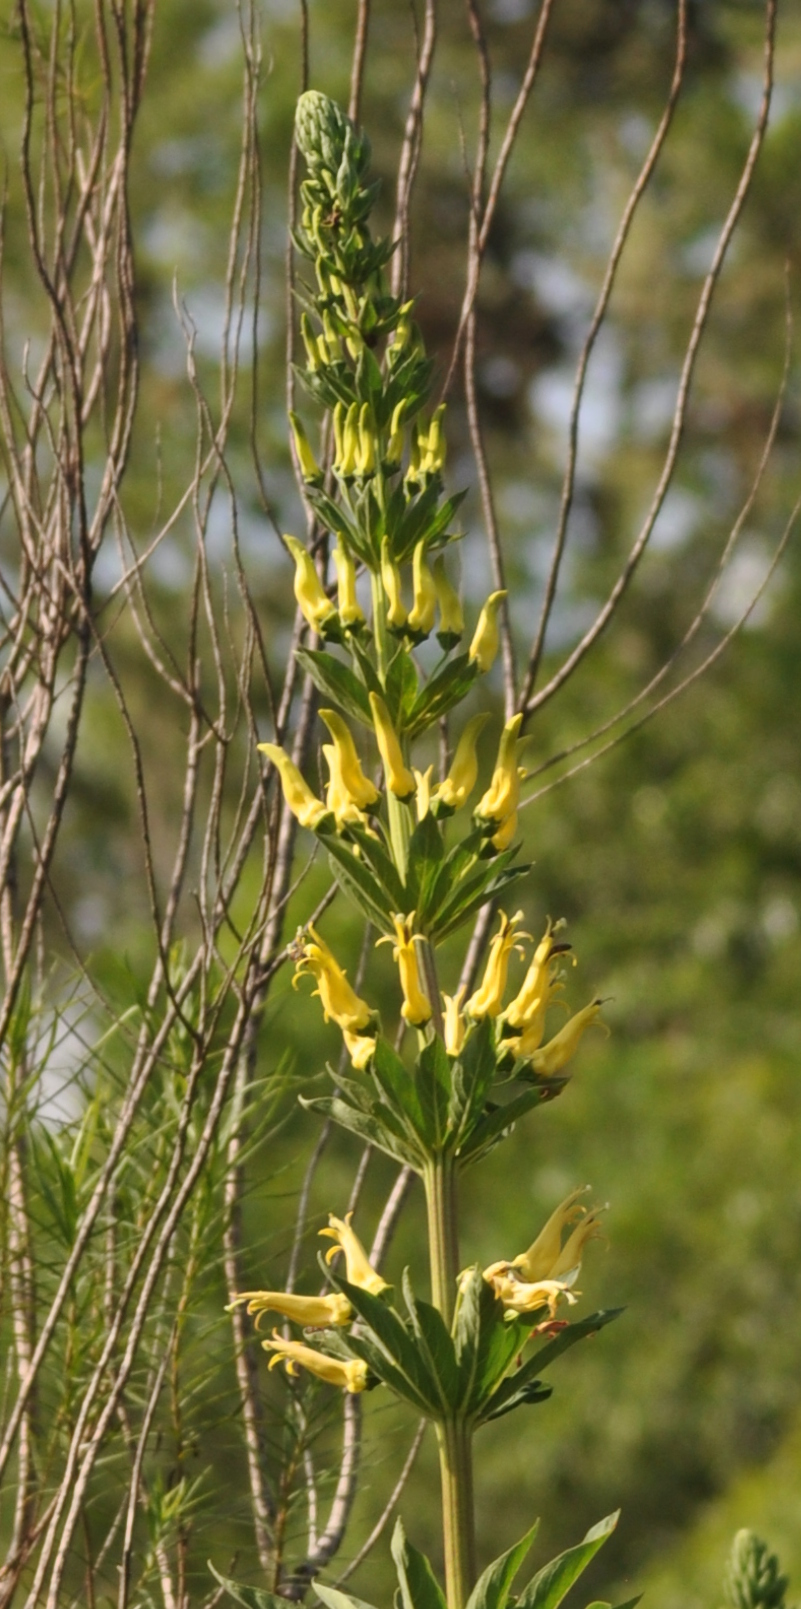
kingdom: Plantae
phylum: Tracheophyta
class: Magnoliopsida
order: Asterales
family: Campanulaceae
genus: Siphocampylus
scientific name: Siphocampylus sulfureus
